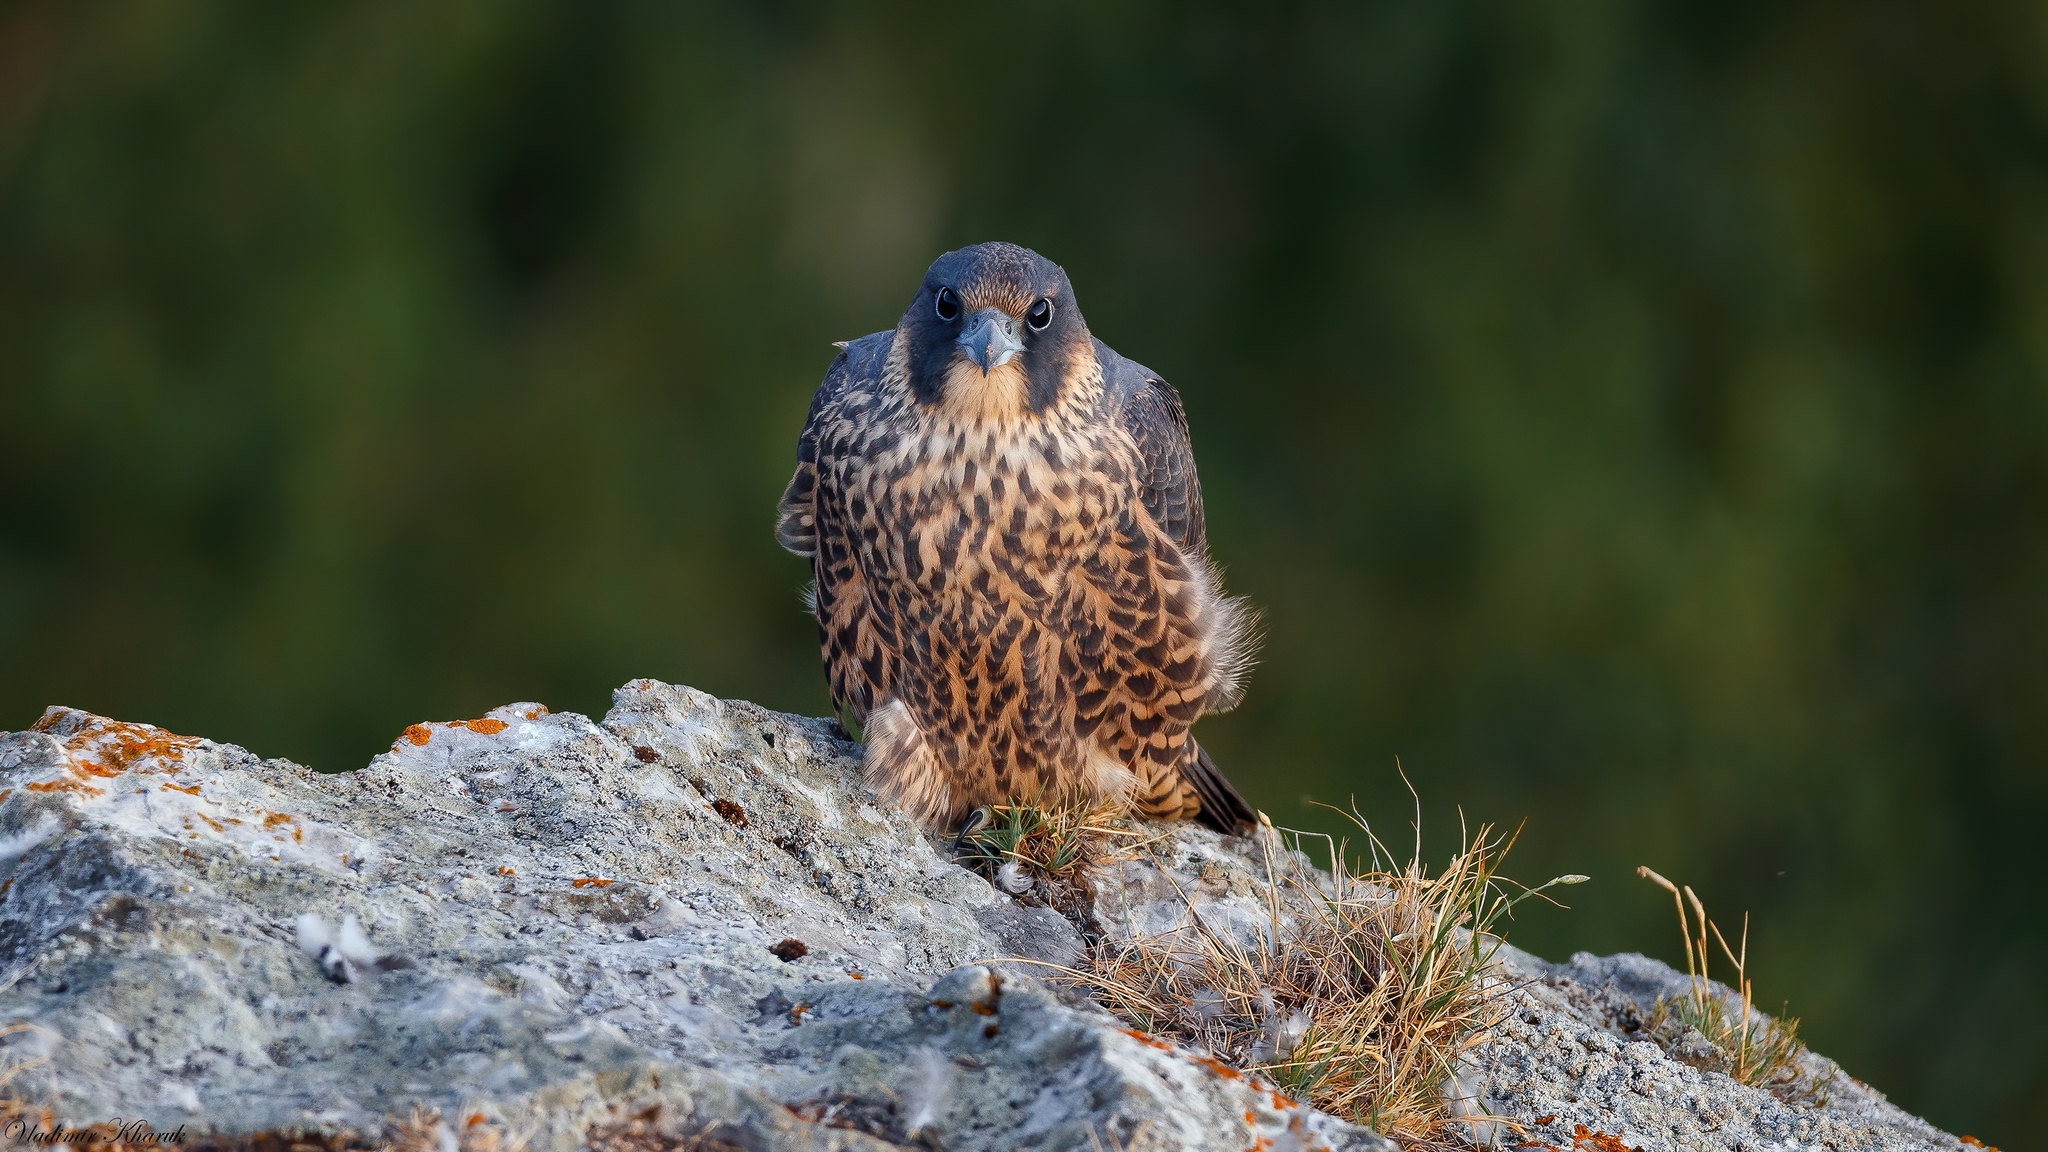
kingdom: Animalia
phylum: Chordata
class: Aves
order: Falconiformes
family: Falconidae
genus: Falco
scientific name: Falco peregrinus
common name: Peregrine falcon
